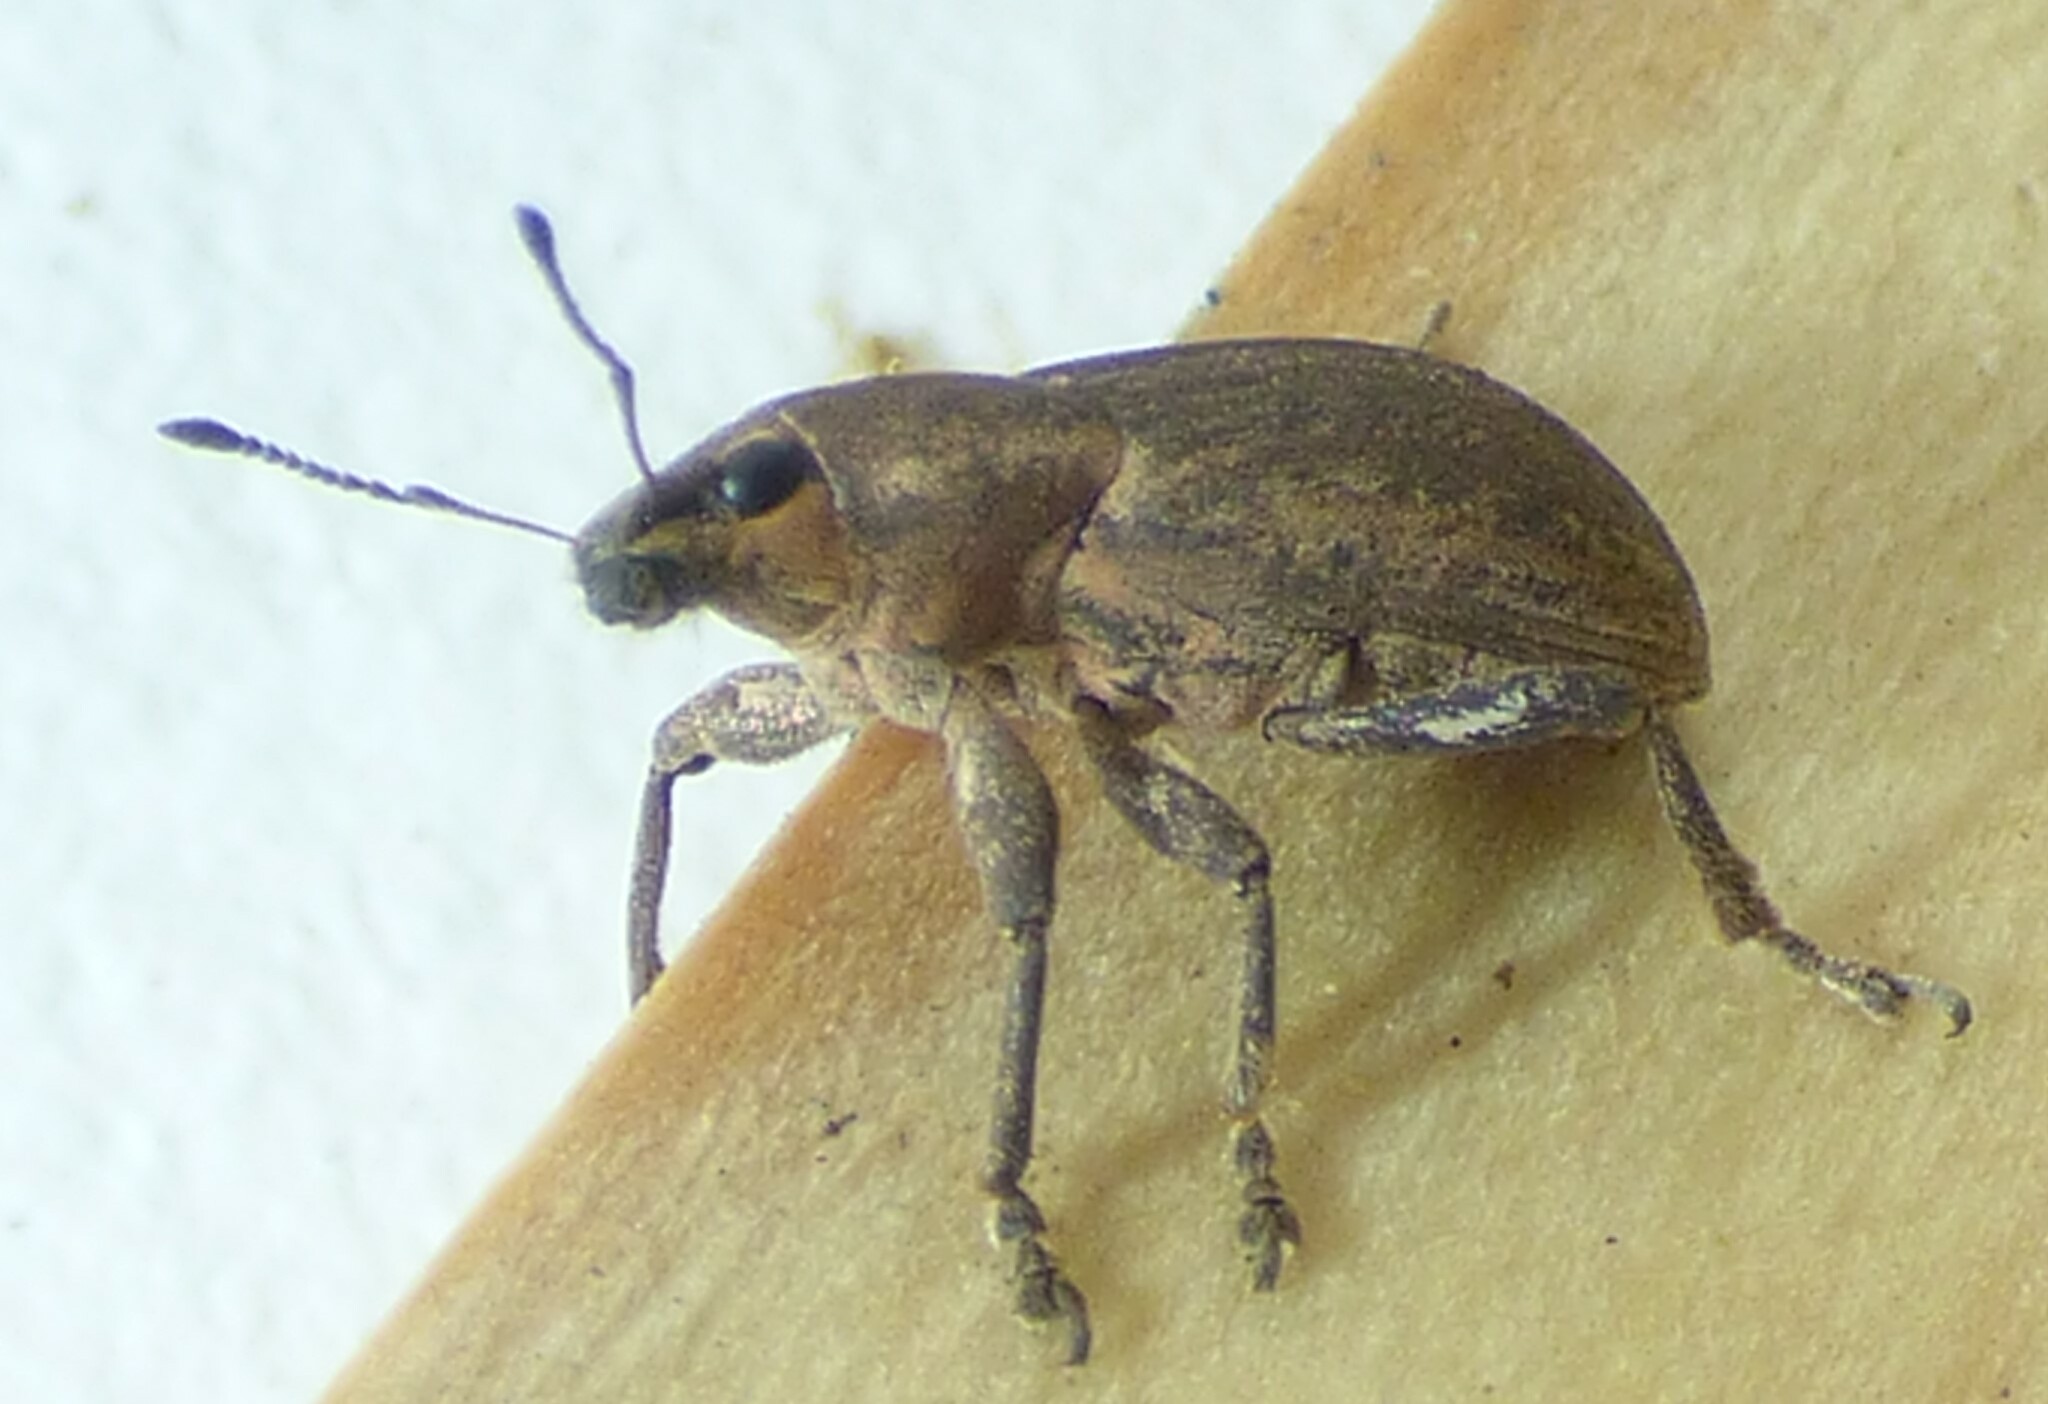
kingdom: Animalia
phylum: Arthropoda
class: Insecta
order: Coleoptera
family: Curculionidae
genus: Tanymecus
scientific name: Tanymecus lacaena
